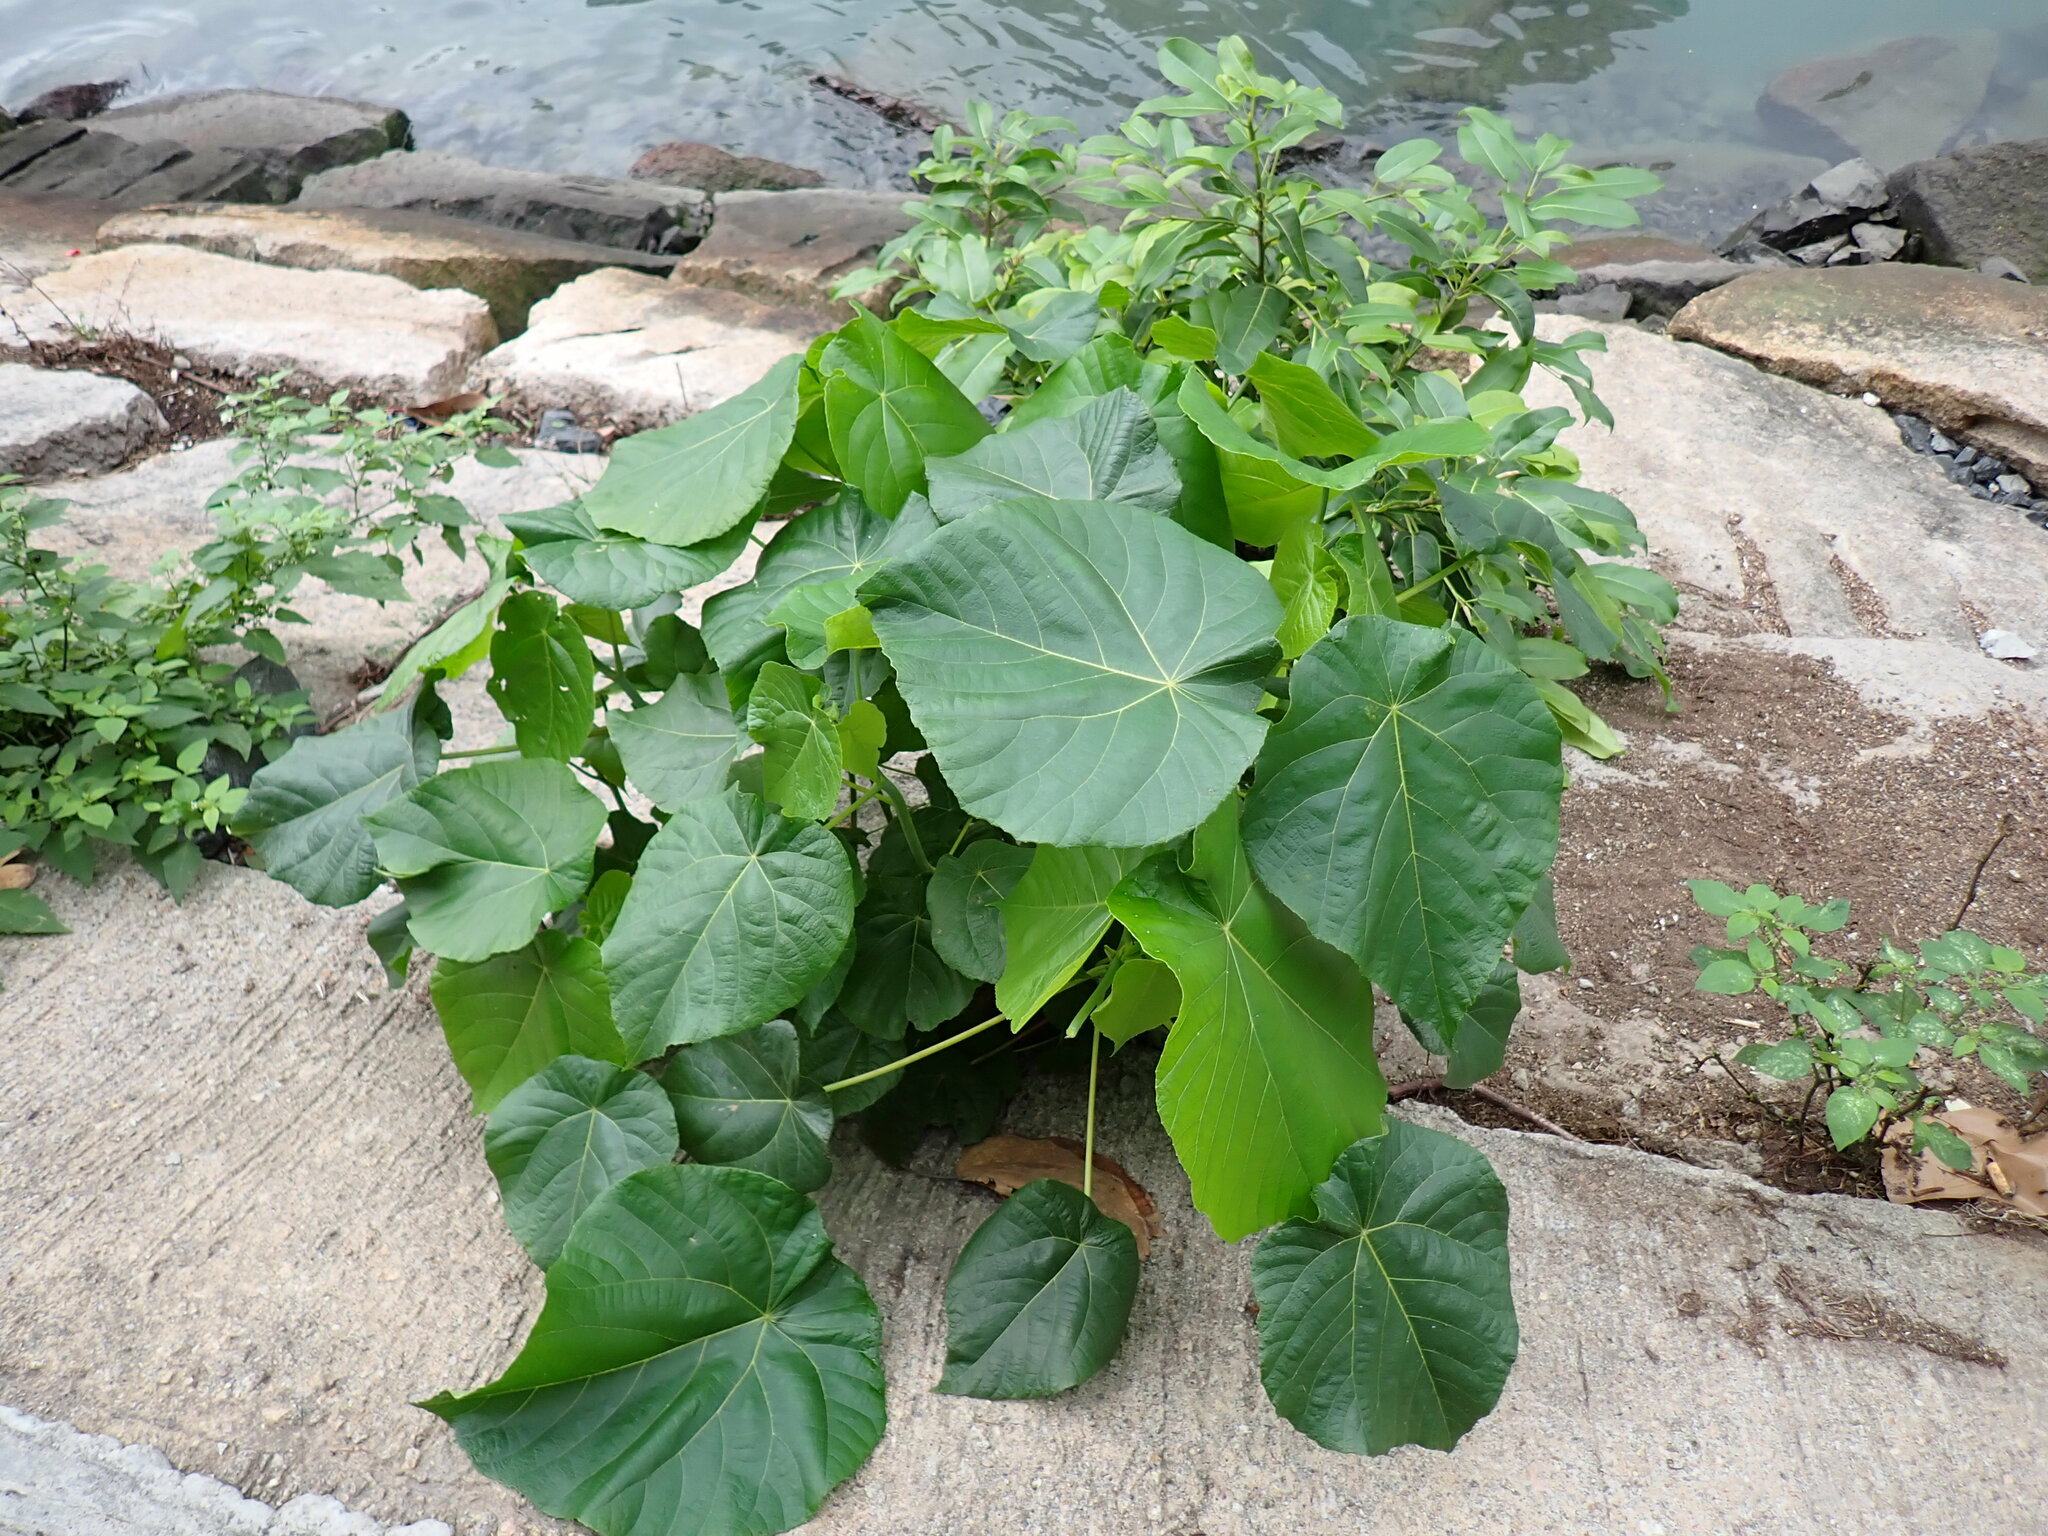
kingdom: Plantae
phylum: Tracheophyta
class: Magnoliopsida
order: Malpighiales
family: Euphorbiaceae
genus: Macaranga
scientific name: Macaranga tanarius
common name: Parasol leaf tree
